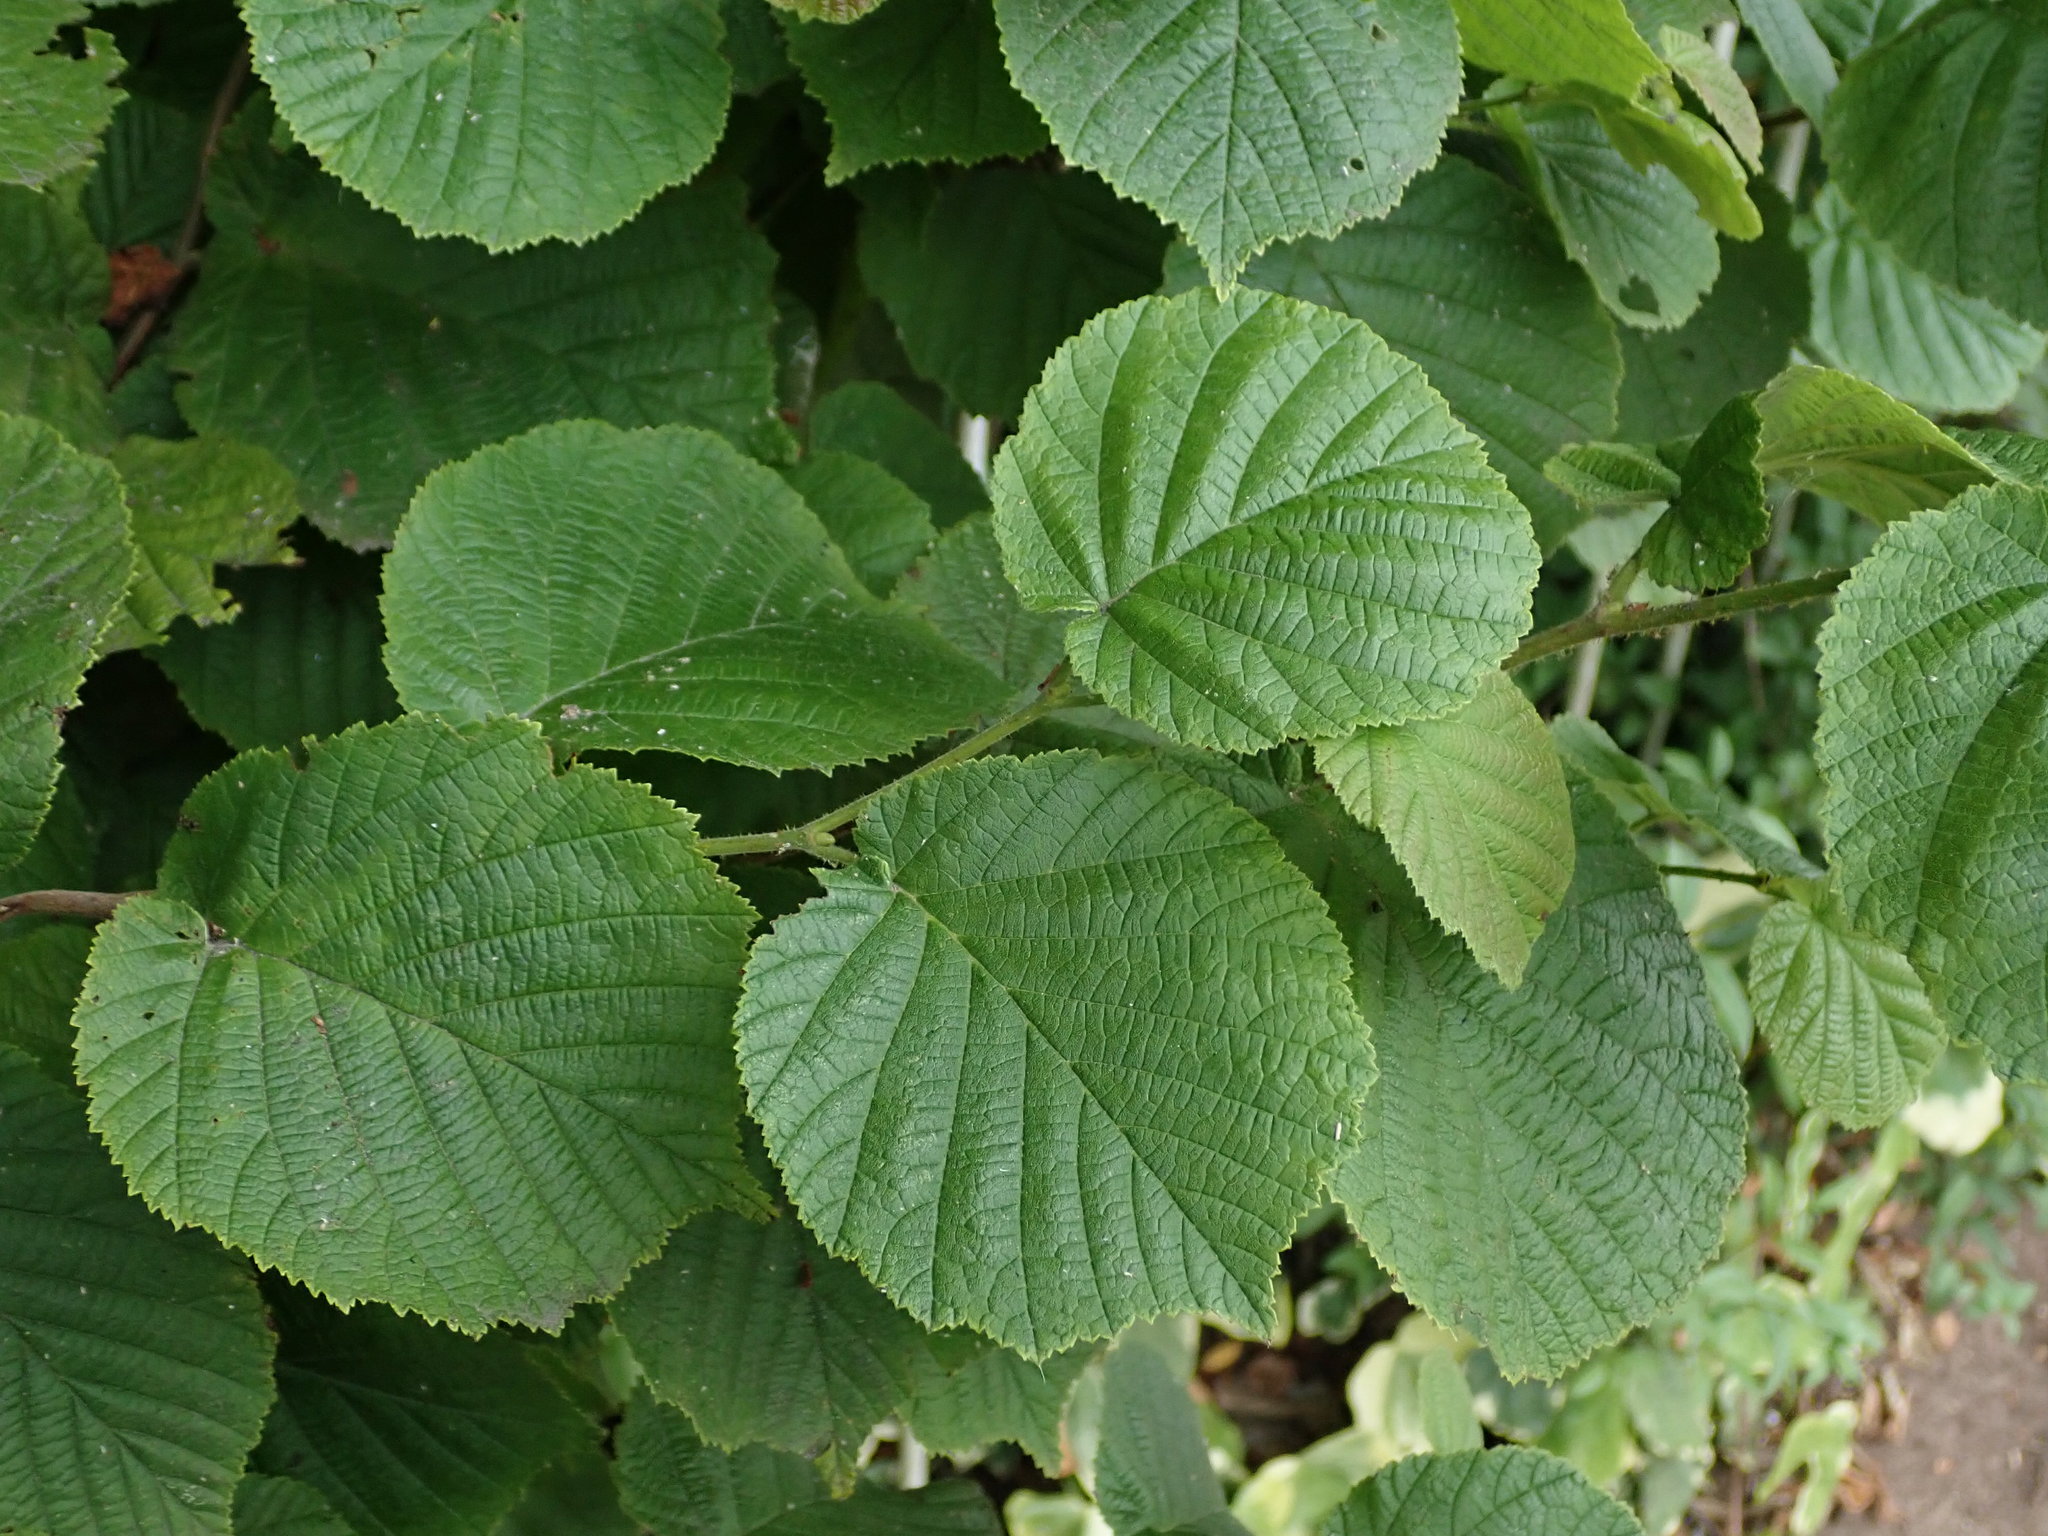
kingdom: Plantae
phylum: Tracheophyta
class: Magnoliopsida
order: Fagales
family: Betulaceae
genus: Corylus
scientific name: Corylus avellana
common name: European hazel
